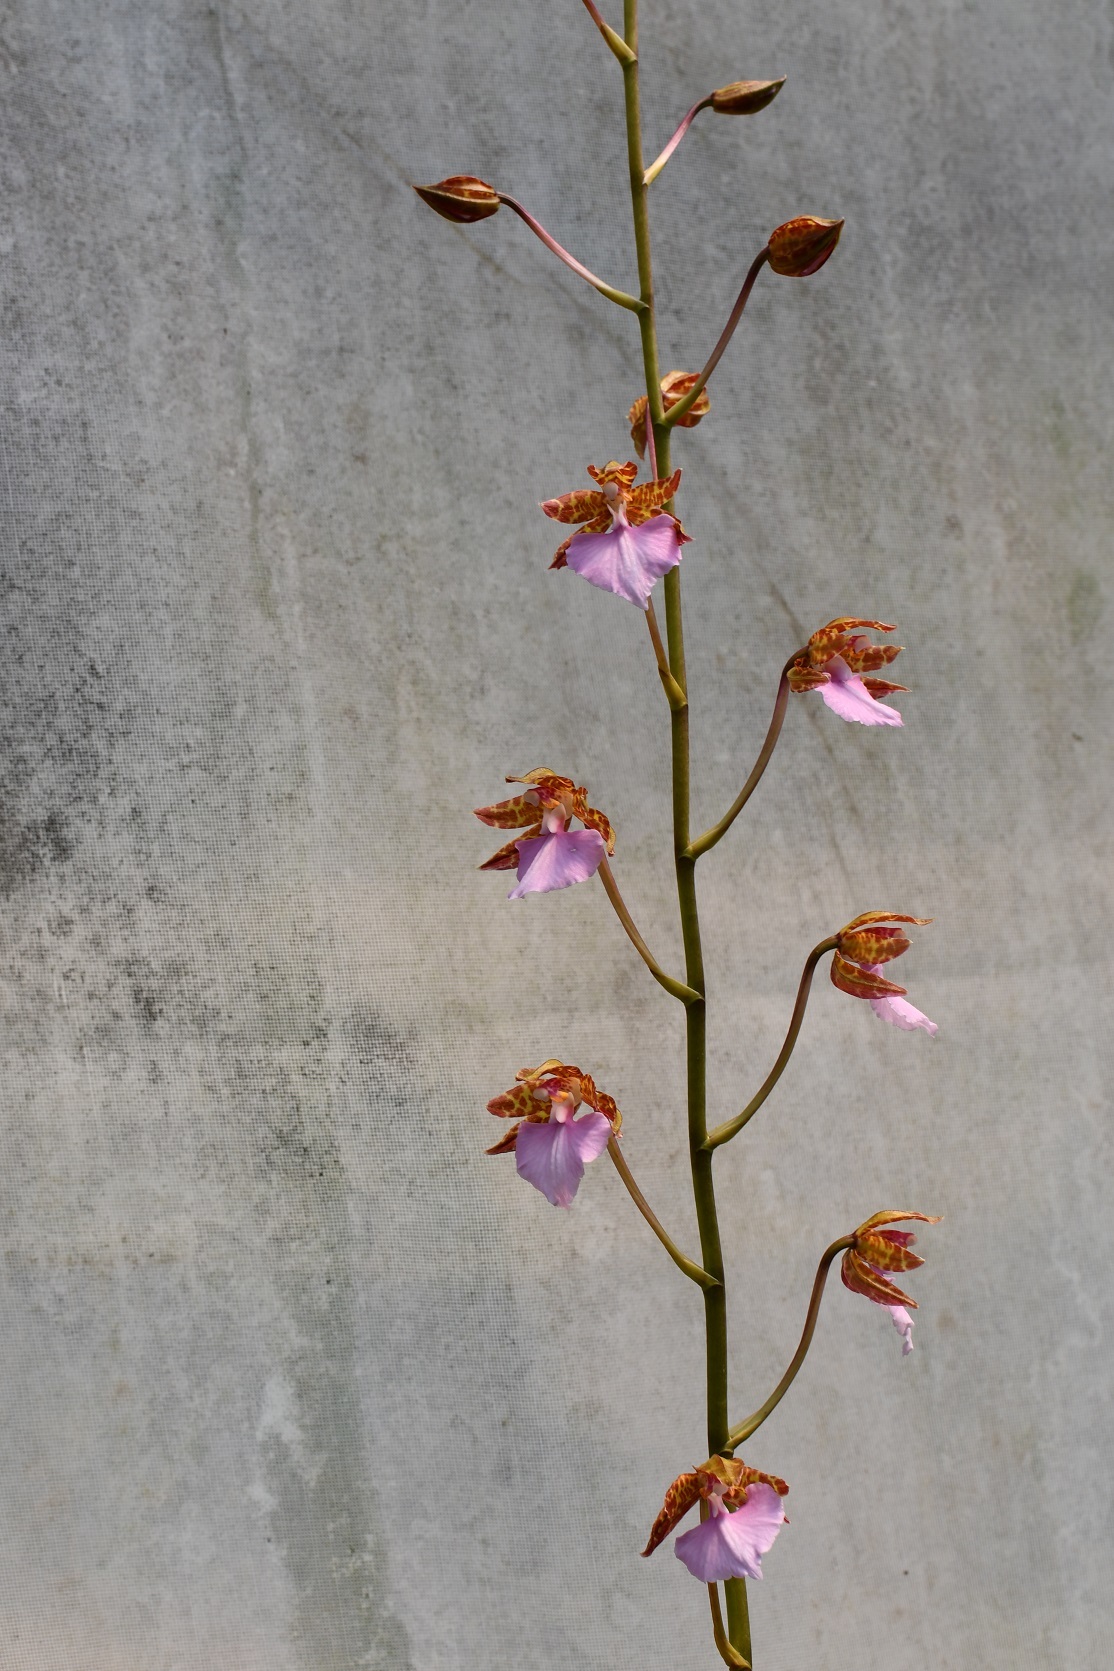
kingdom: Plantae
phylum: Tracheophyta
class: Liliopsida
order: Asparagales
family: Orchidaceae
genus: Rhynchostele
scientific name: Rhynchostele bictoniensis
